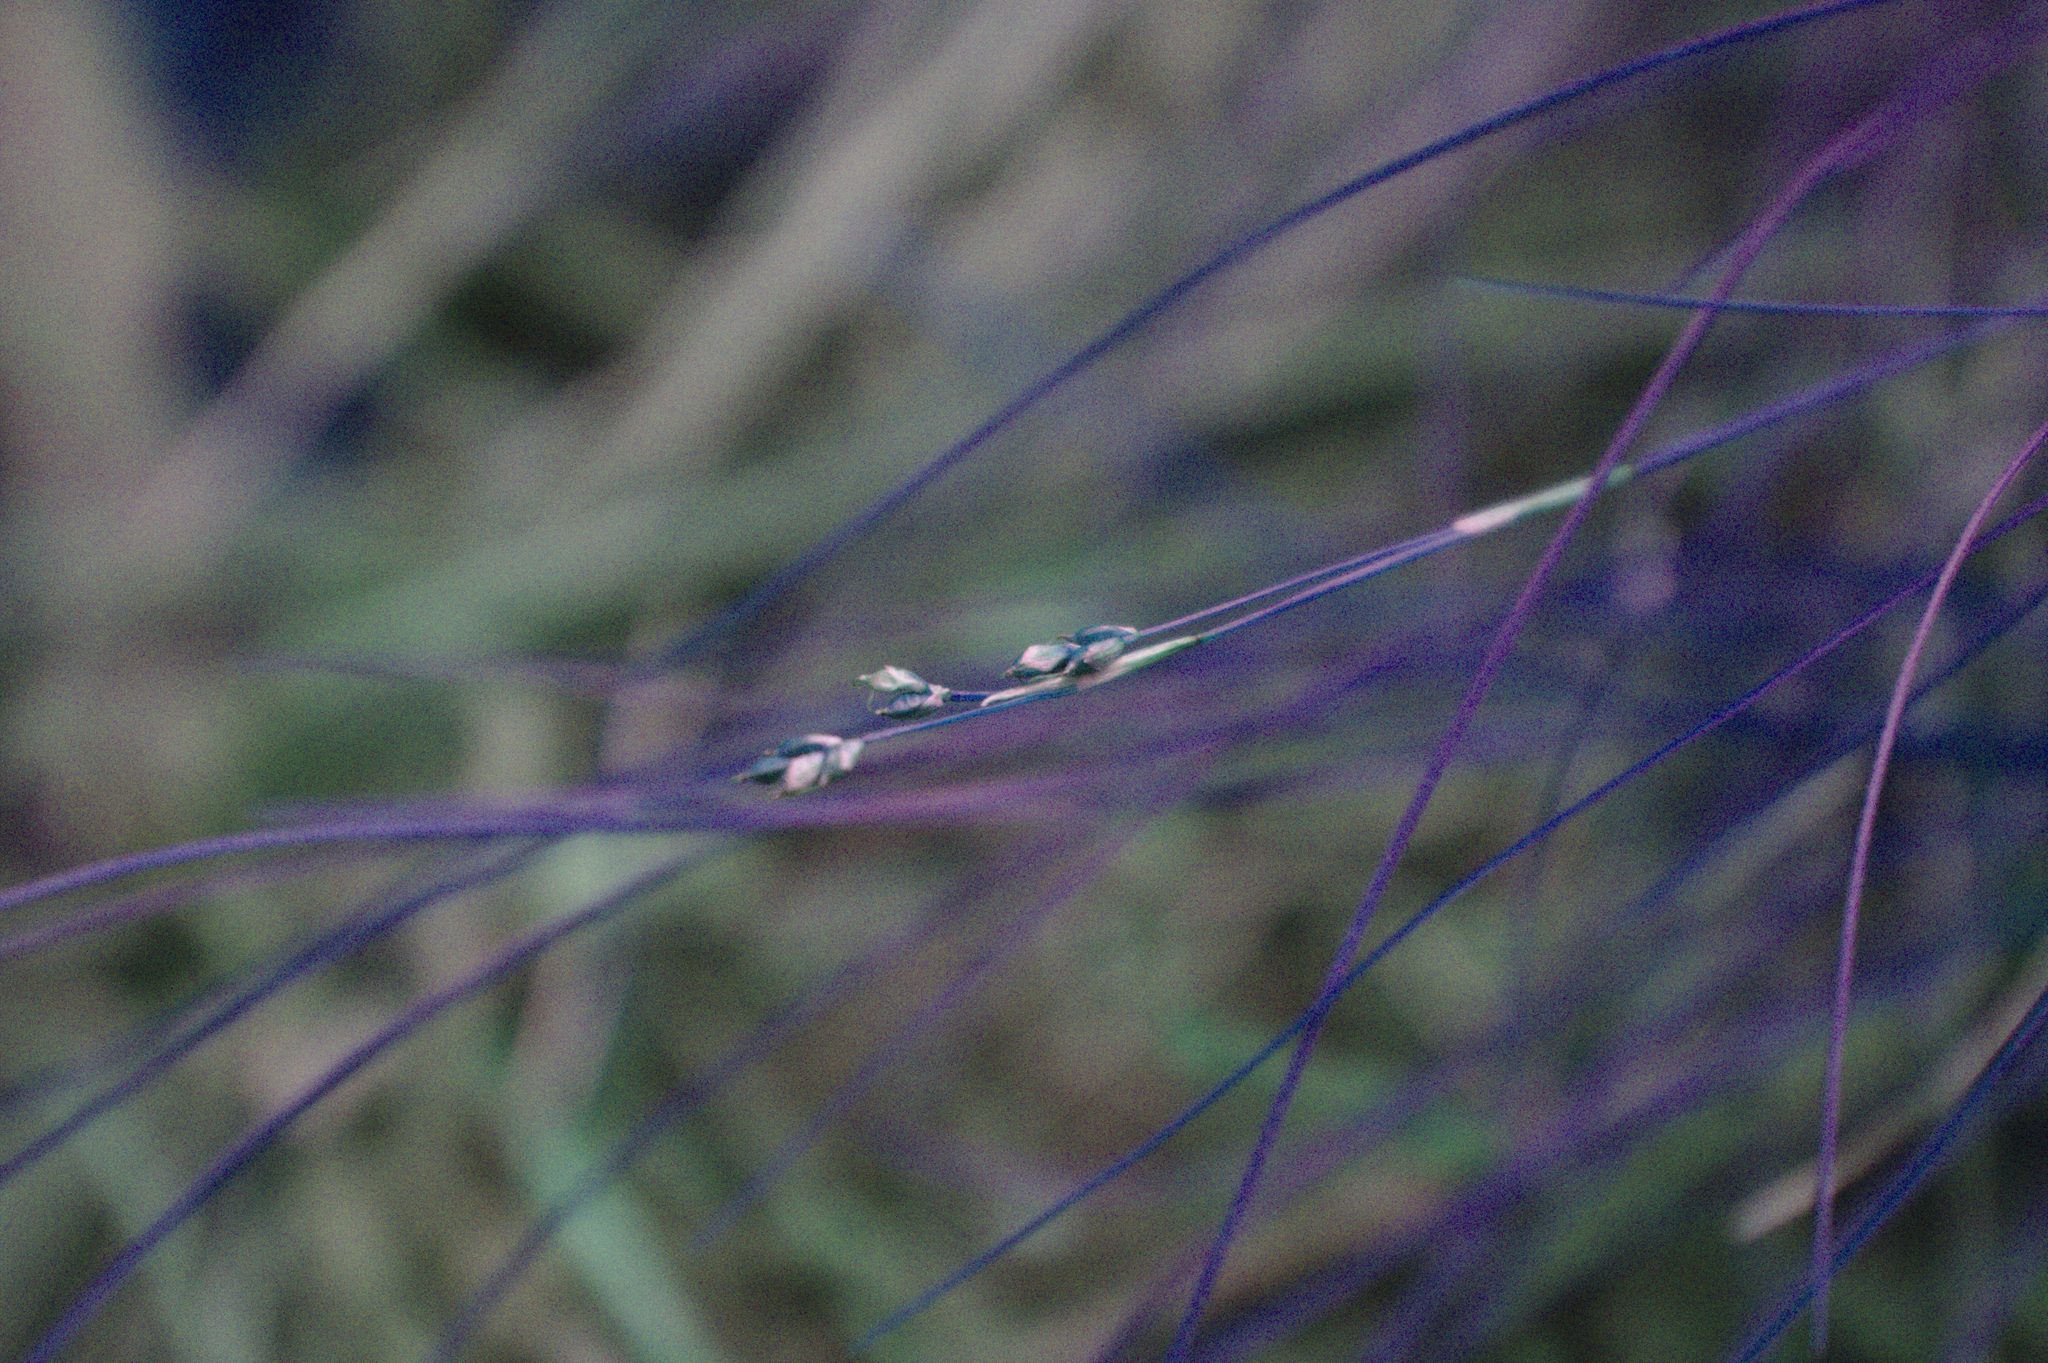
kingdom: Plantae
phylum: Tracheophyta
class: Liliopsida
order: Poales
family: Cyperaceae
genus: Carex
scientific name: Carex eburnea
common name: Bristle-leaved sedge
